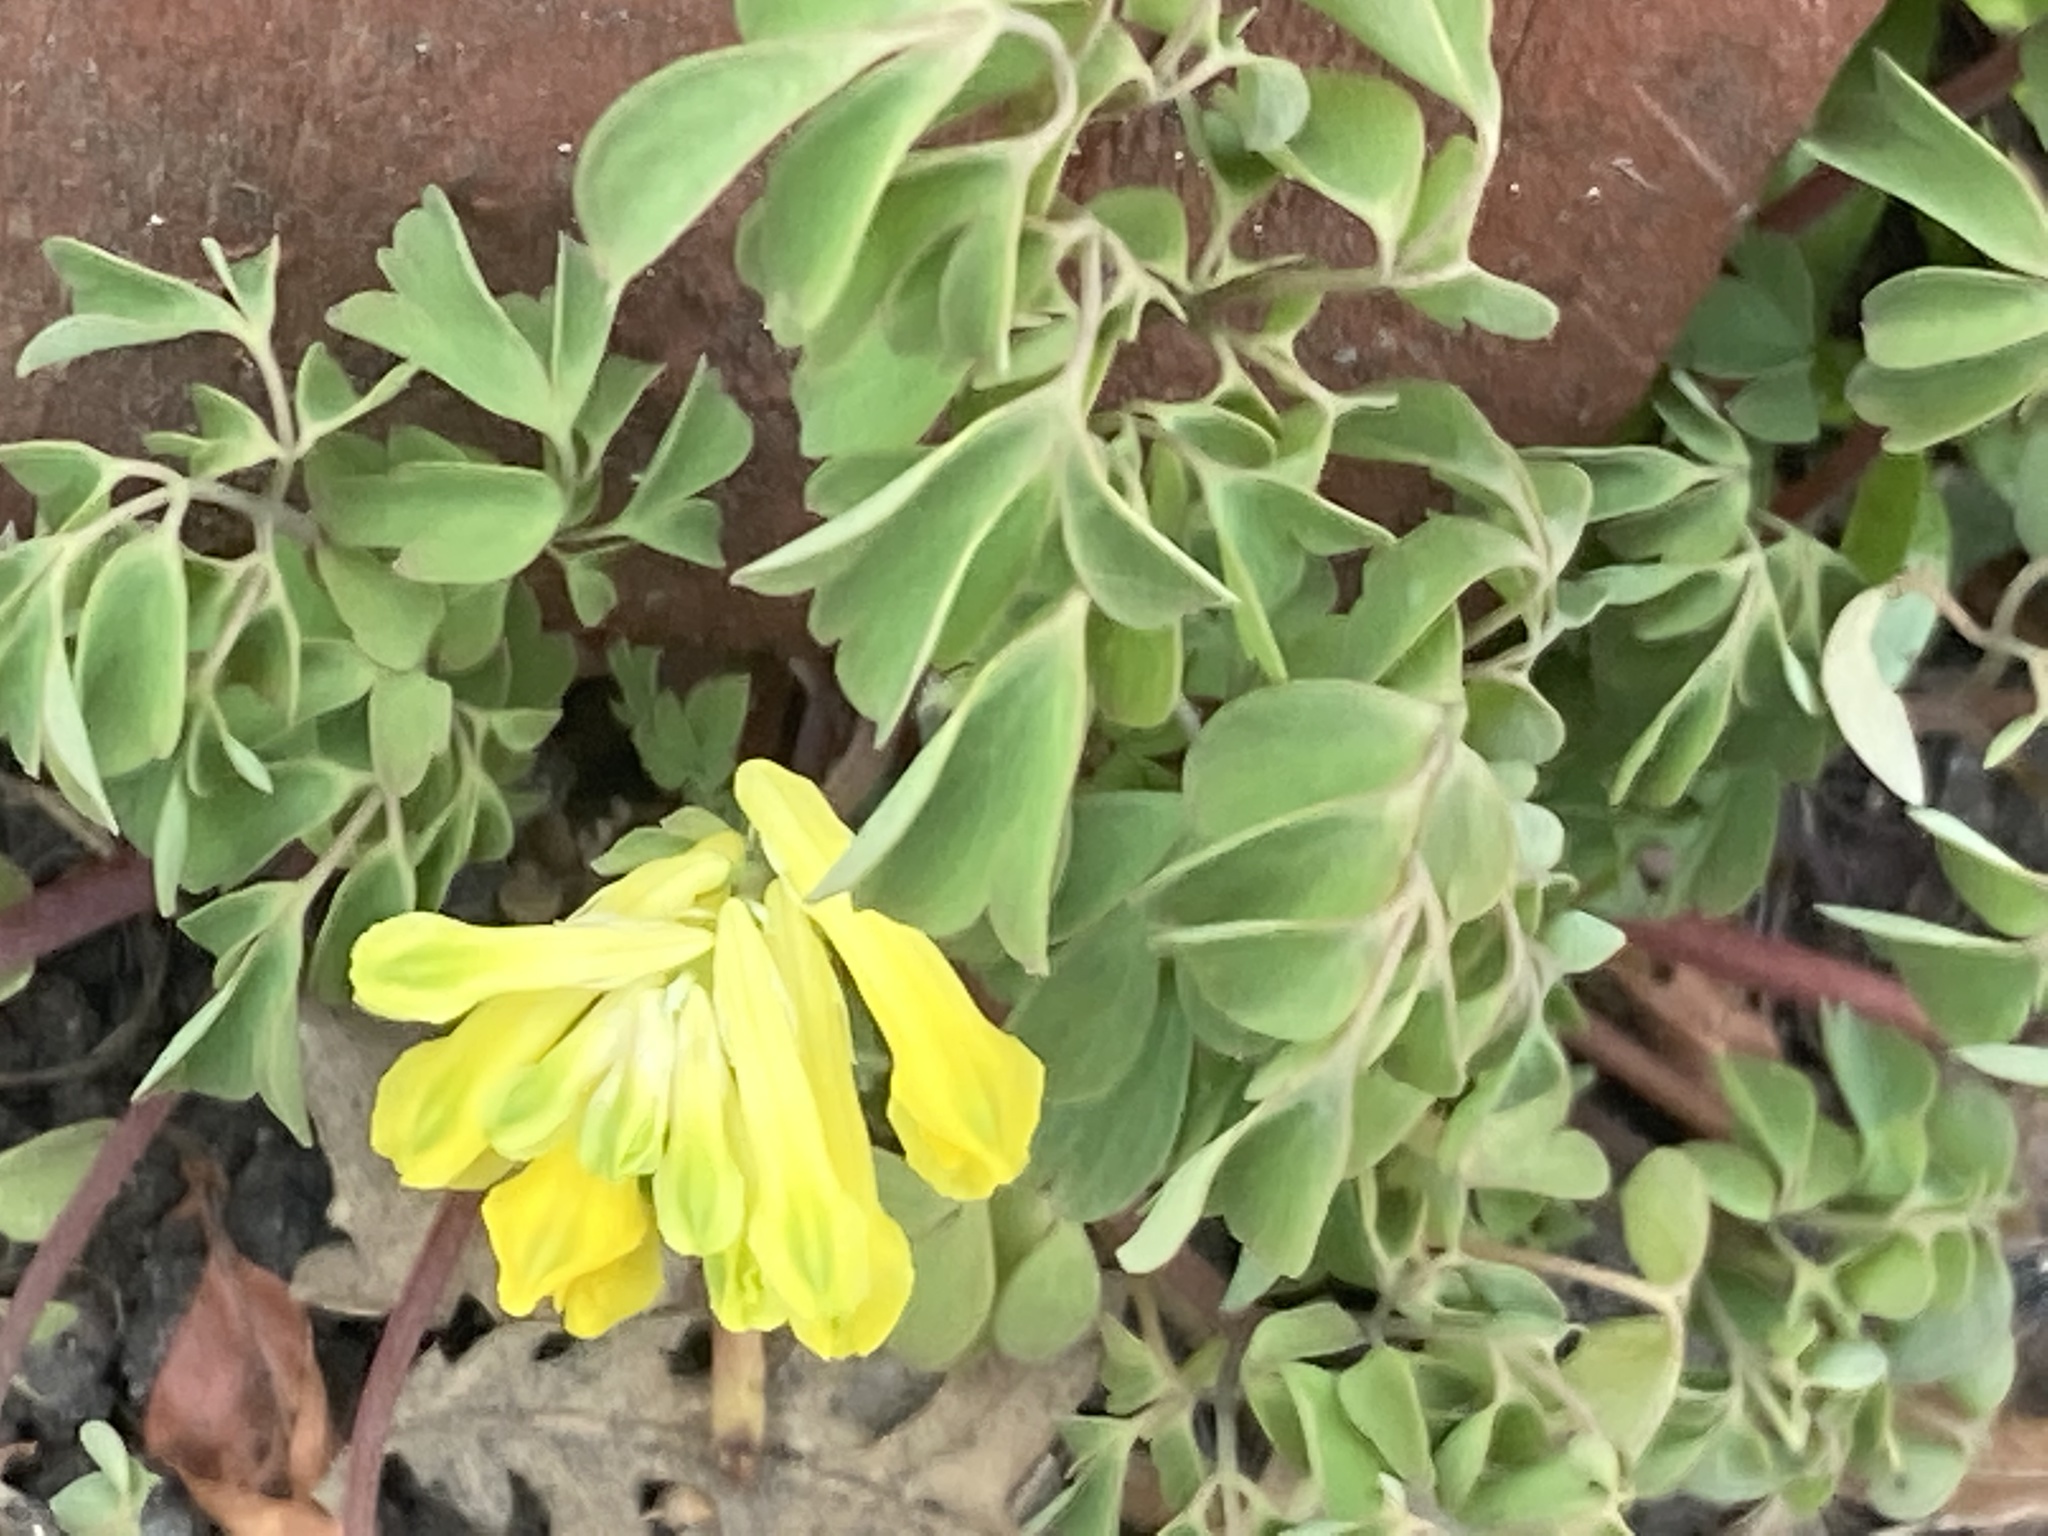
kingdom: Plantae
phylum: Tracheophyta
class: Magnoliopsida
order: Ranunculales
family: Papaveraceae
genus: Pseudofumaria
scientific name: Pseudofumaria lutea
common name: Yellow corydalis
